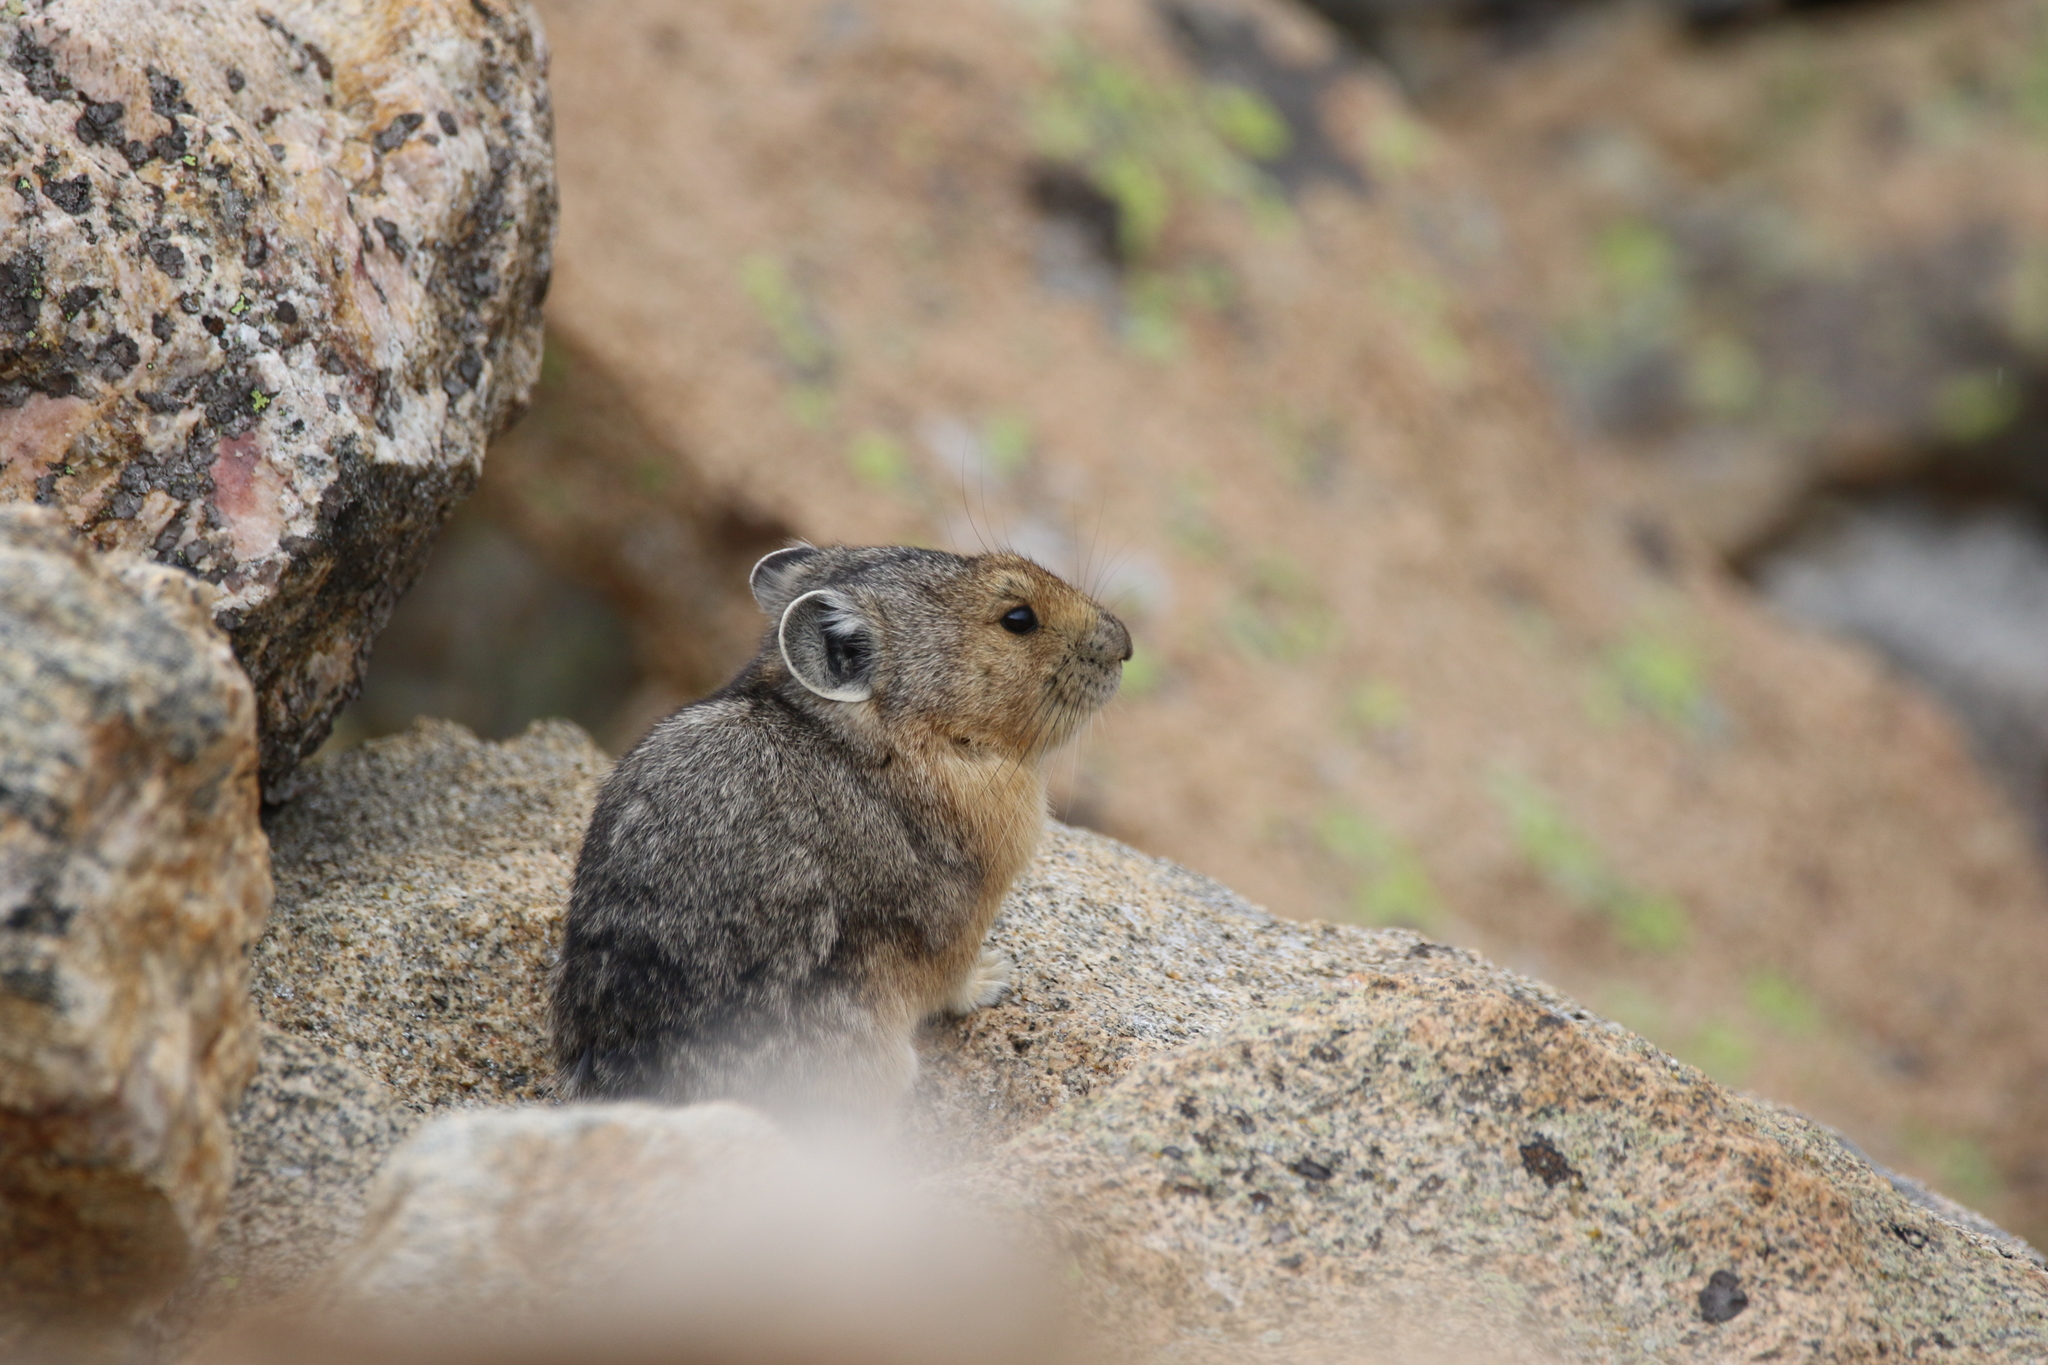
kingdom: Animalia
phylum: Chordata
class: Mammalia
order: Lagomorpha
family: Ochotonidae
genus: Ochotona
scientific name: Ochotona princeps
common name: American pika
